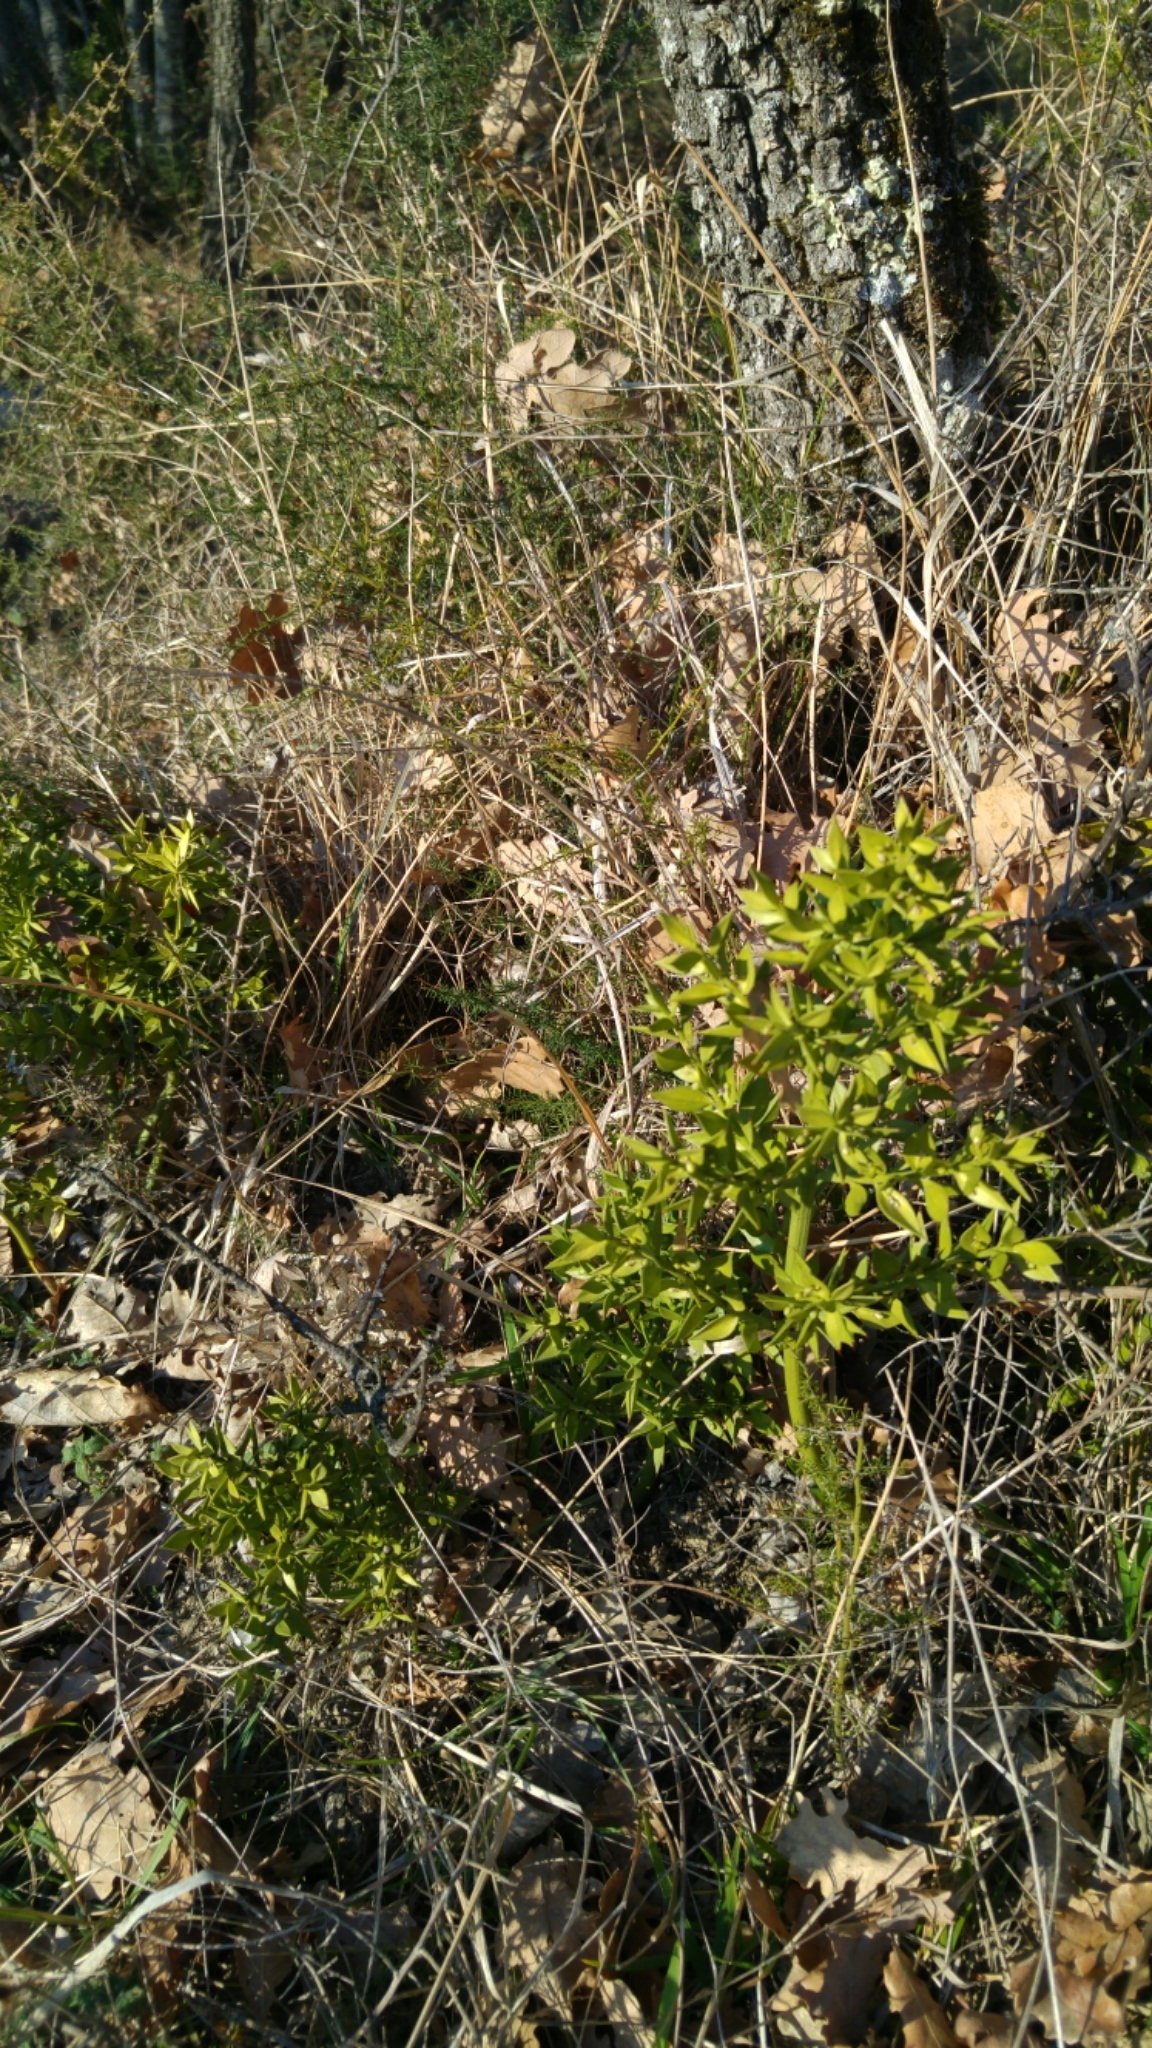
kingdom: Plantae
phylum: Tracheophyta
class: Liliopsida
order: Asparagales
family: Asparagaceae
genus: Ruscus
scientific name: Ruscus aculeatus
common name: Butcher's-broom
